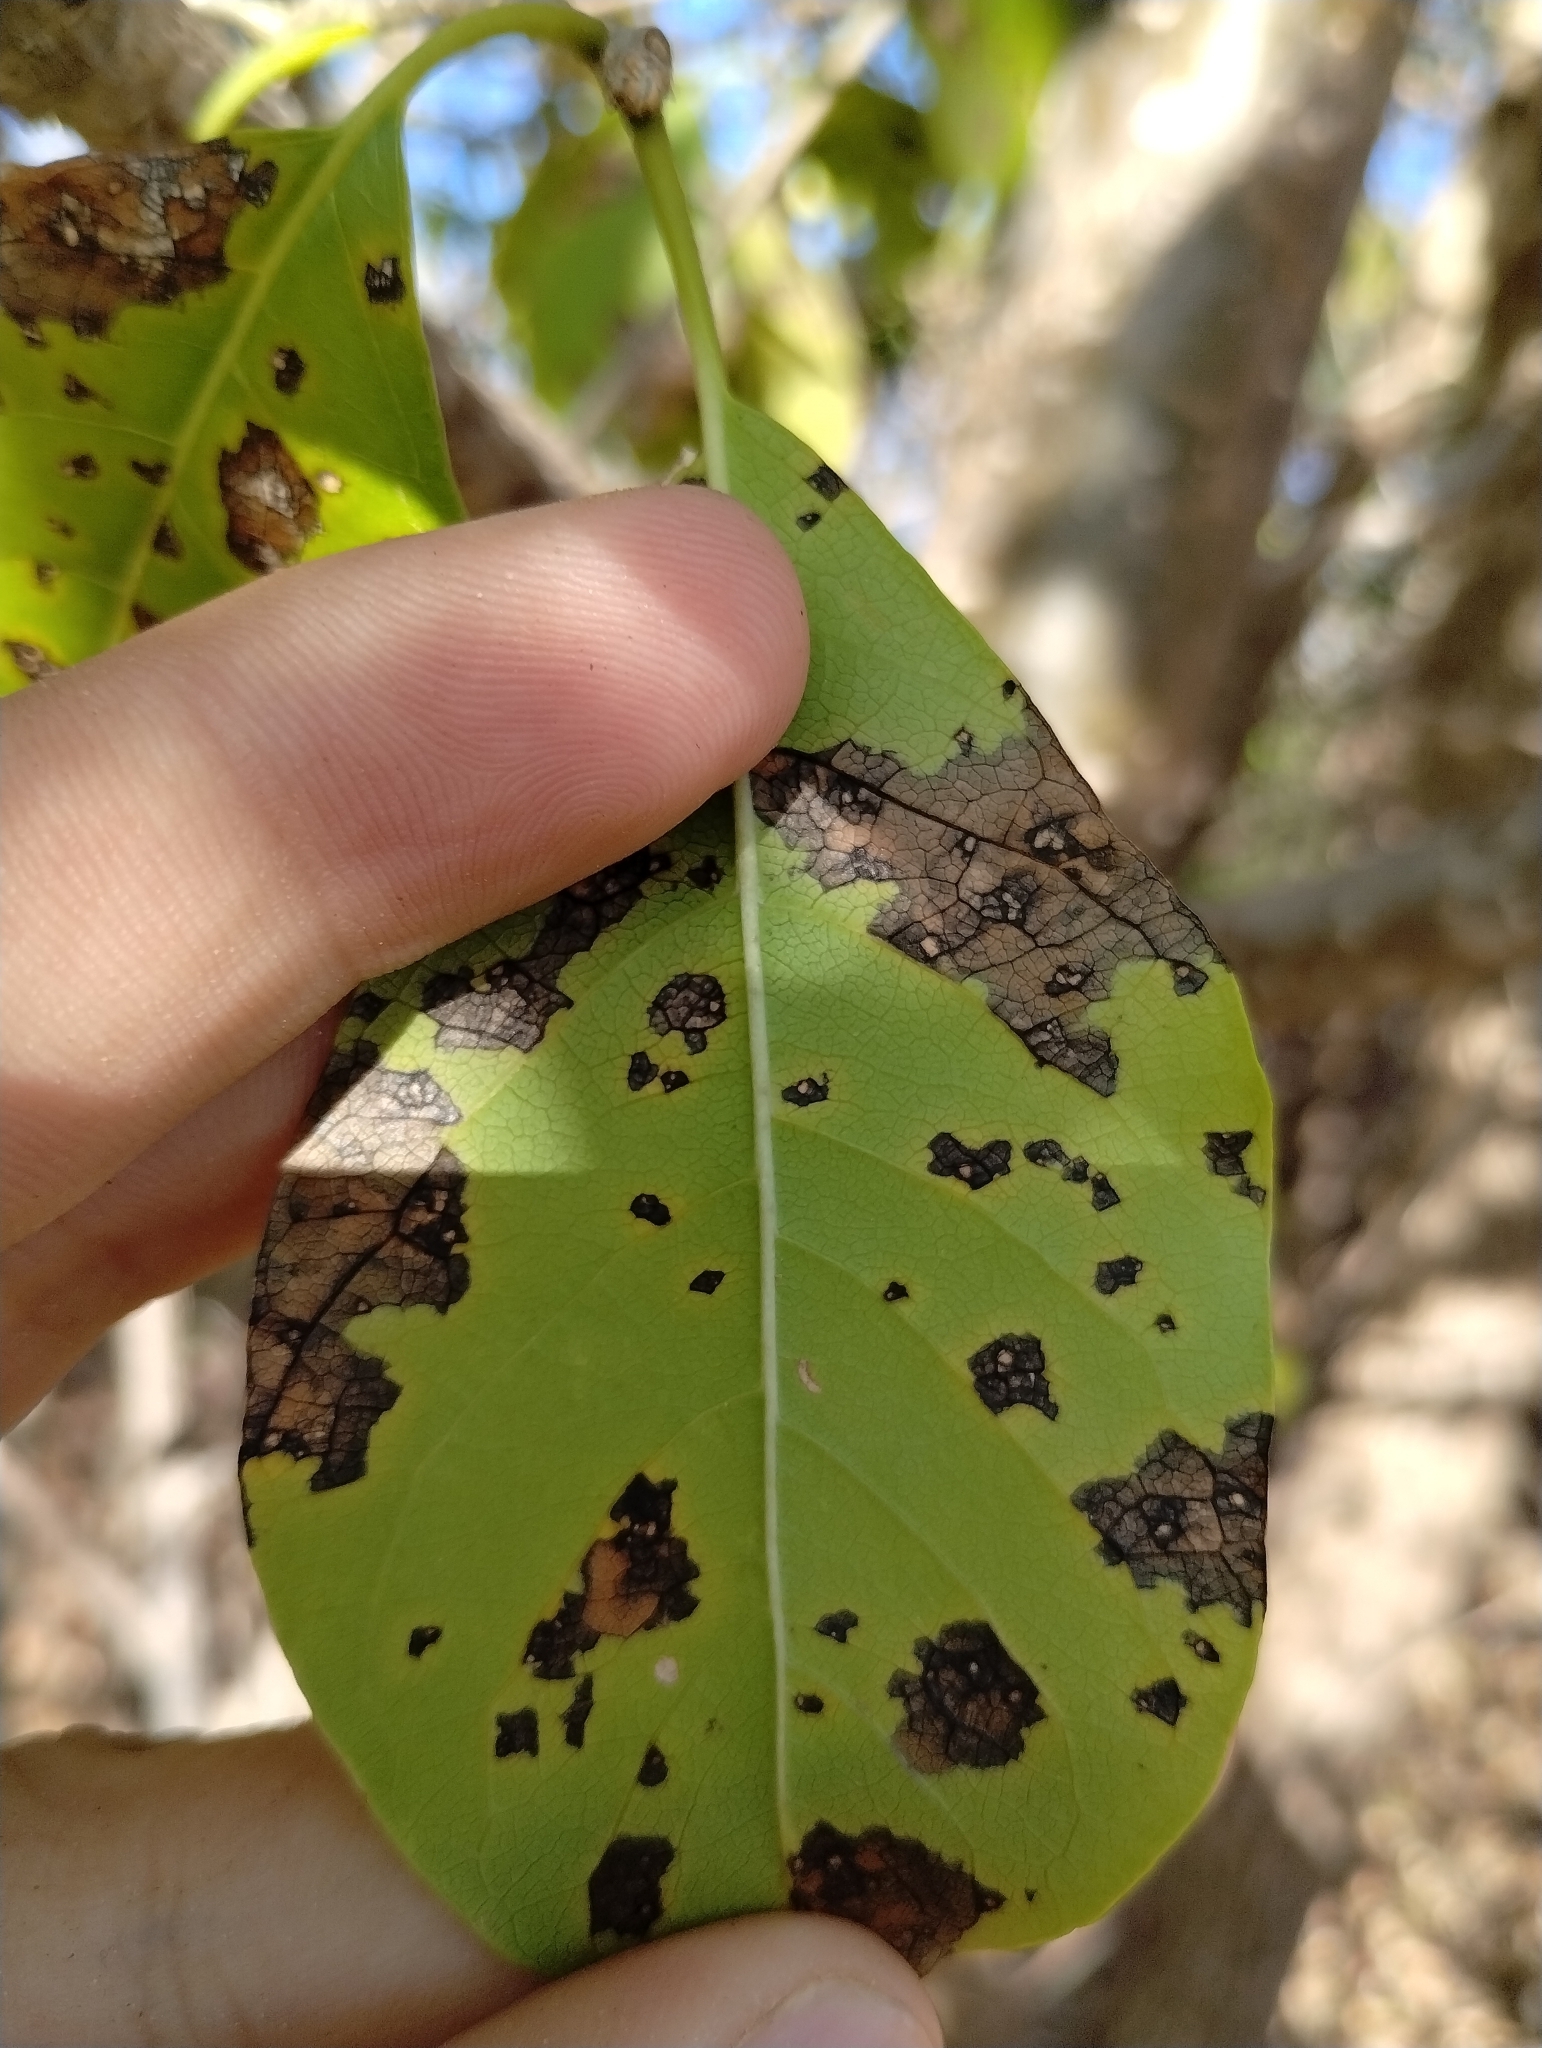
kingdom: Plantae
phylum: Tracheophyta
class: Magnoliopsida
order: Gentianales
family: Apocynaceae
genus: Aspidosperma
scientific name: Aspidosperma pyrifolium
